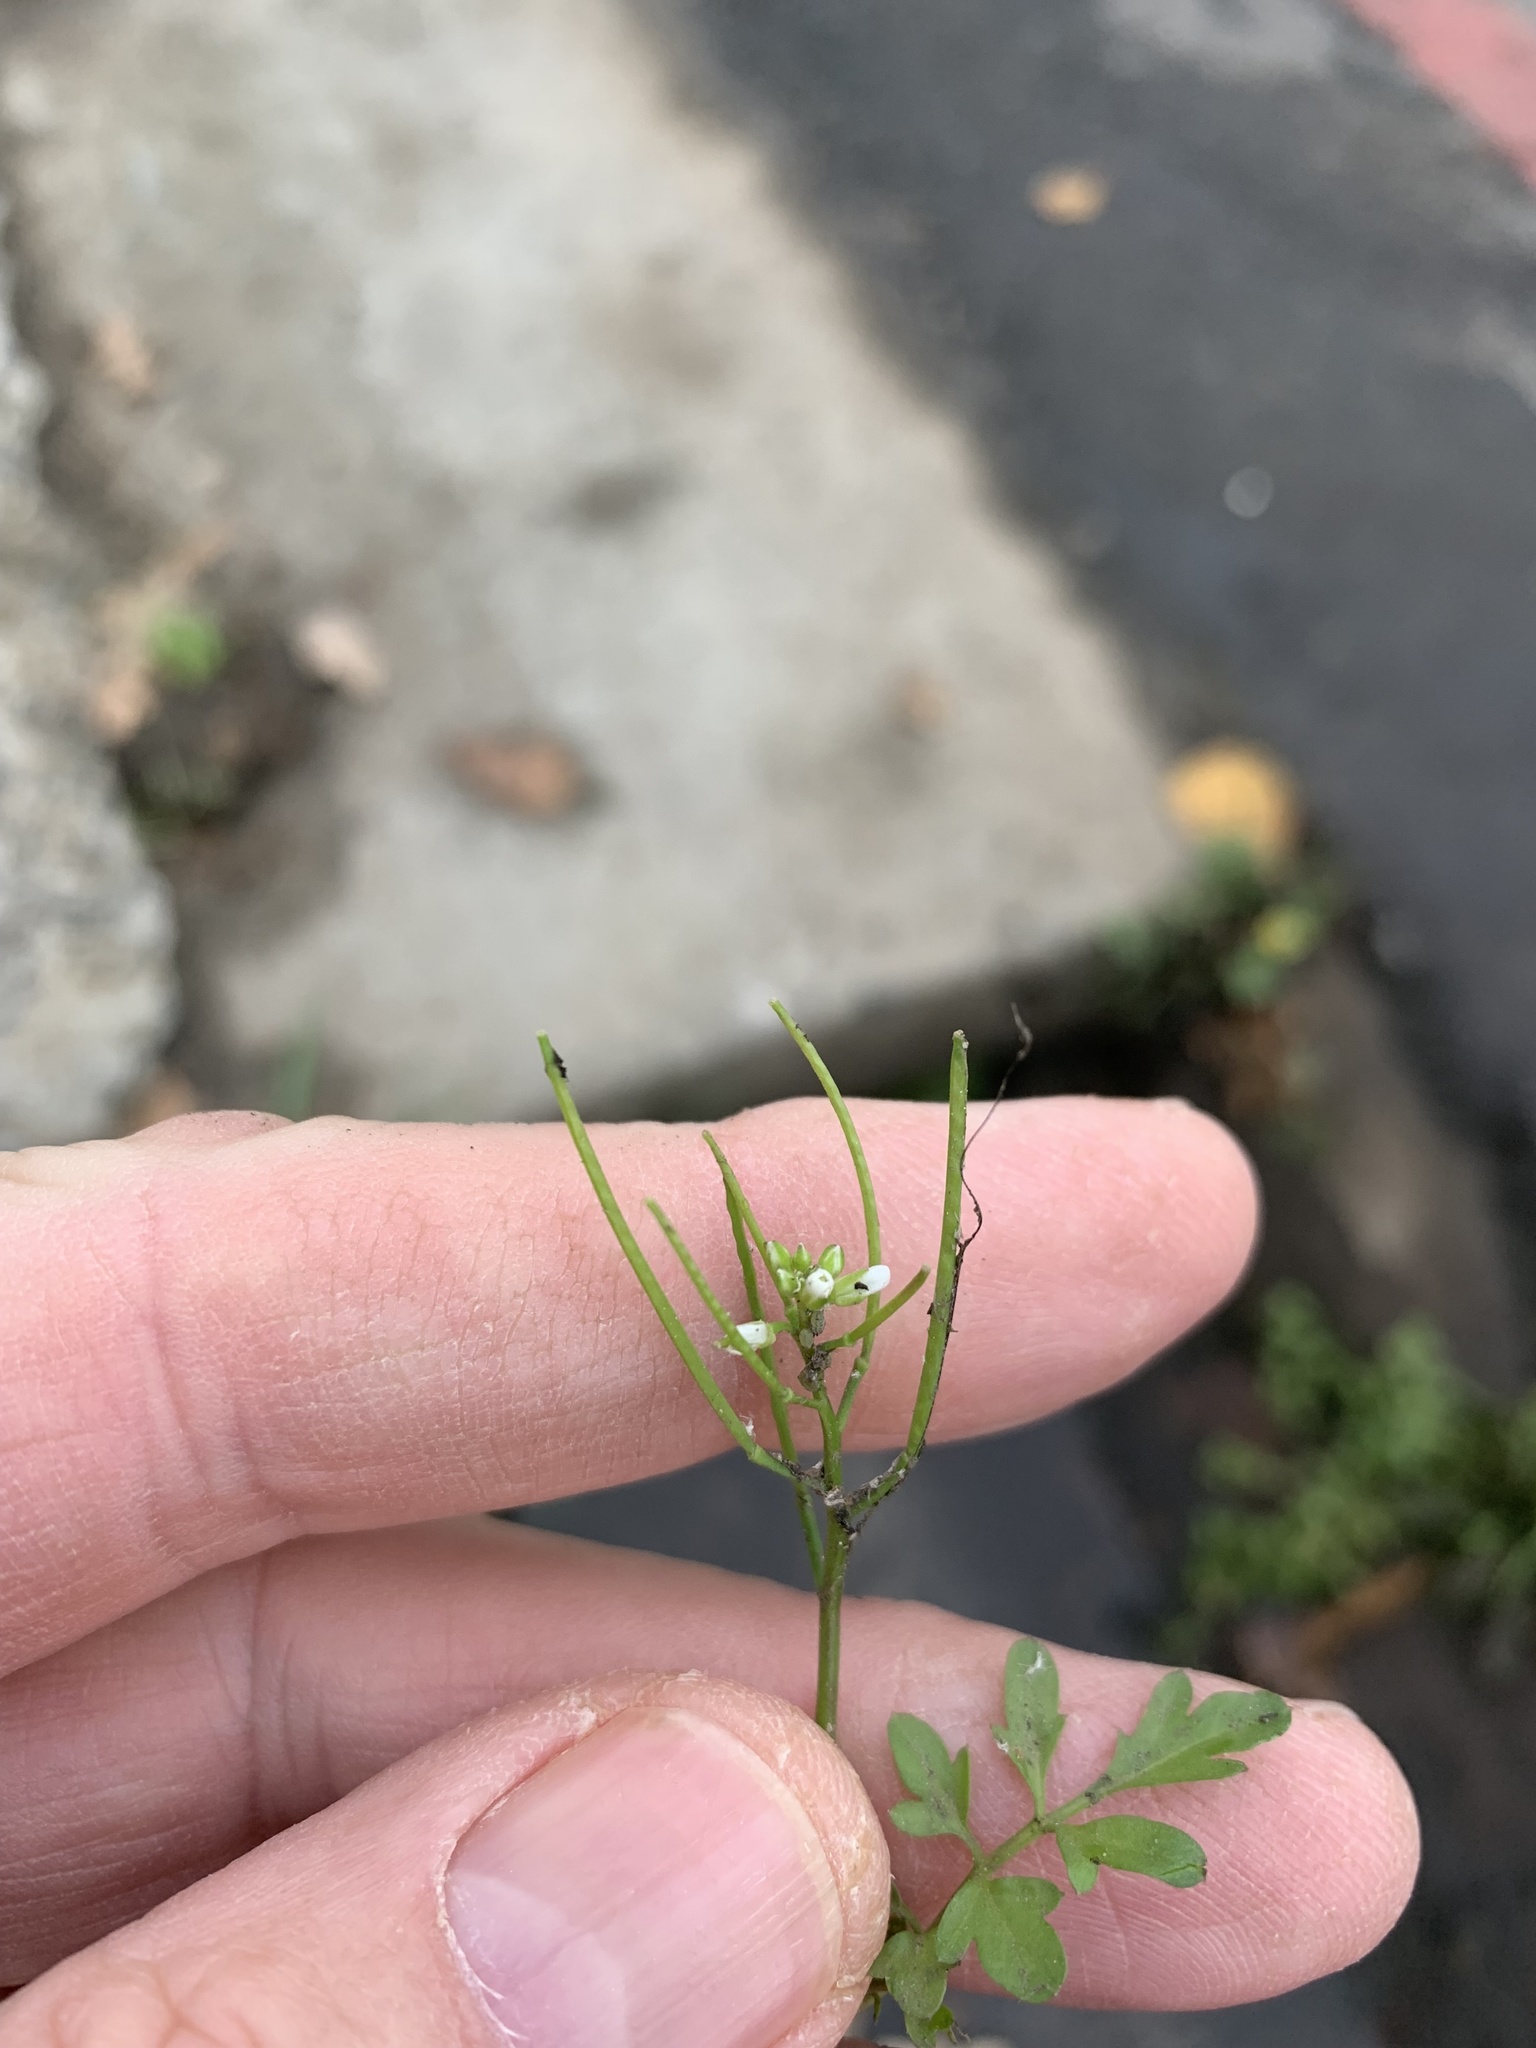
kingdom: Plantae
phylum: Tracheophyta
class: Magnoliopsida
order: Brassicales
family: Brassicaceae
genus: Cardamine
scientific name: Cardamine occulta
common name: Asian wavy bittercress
